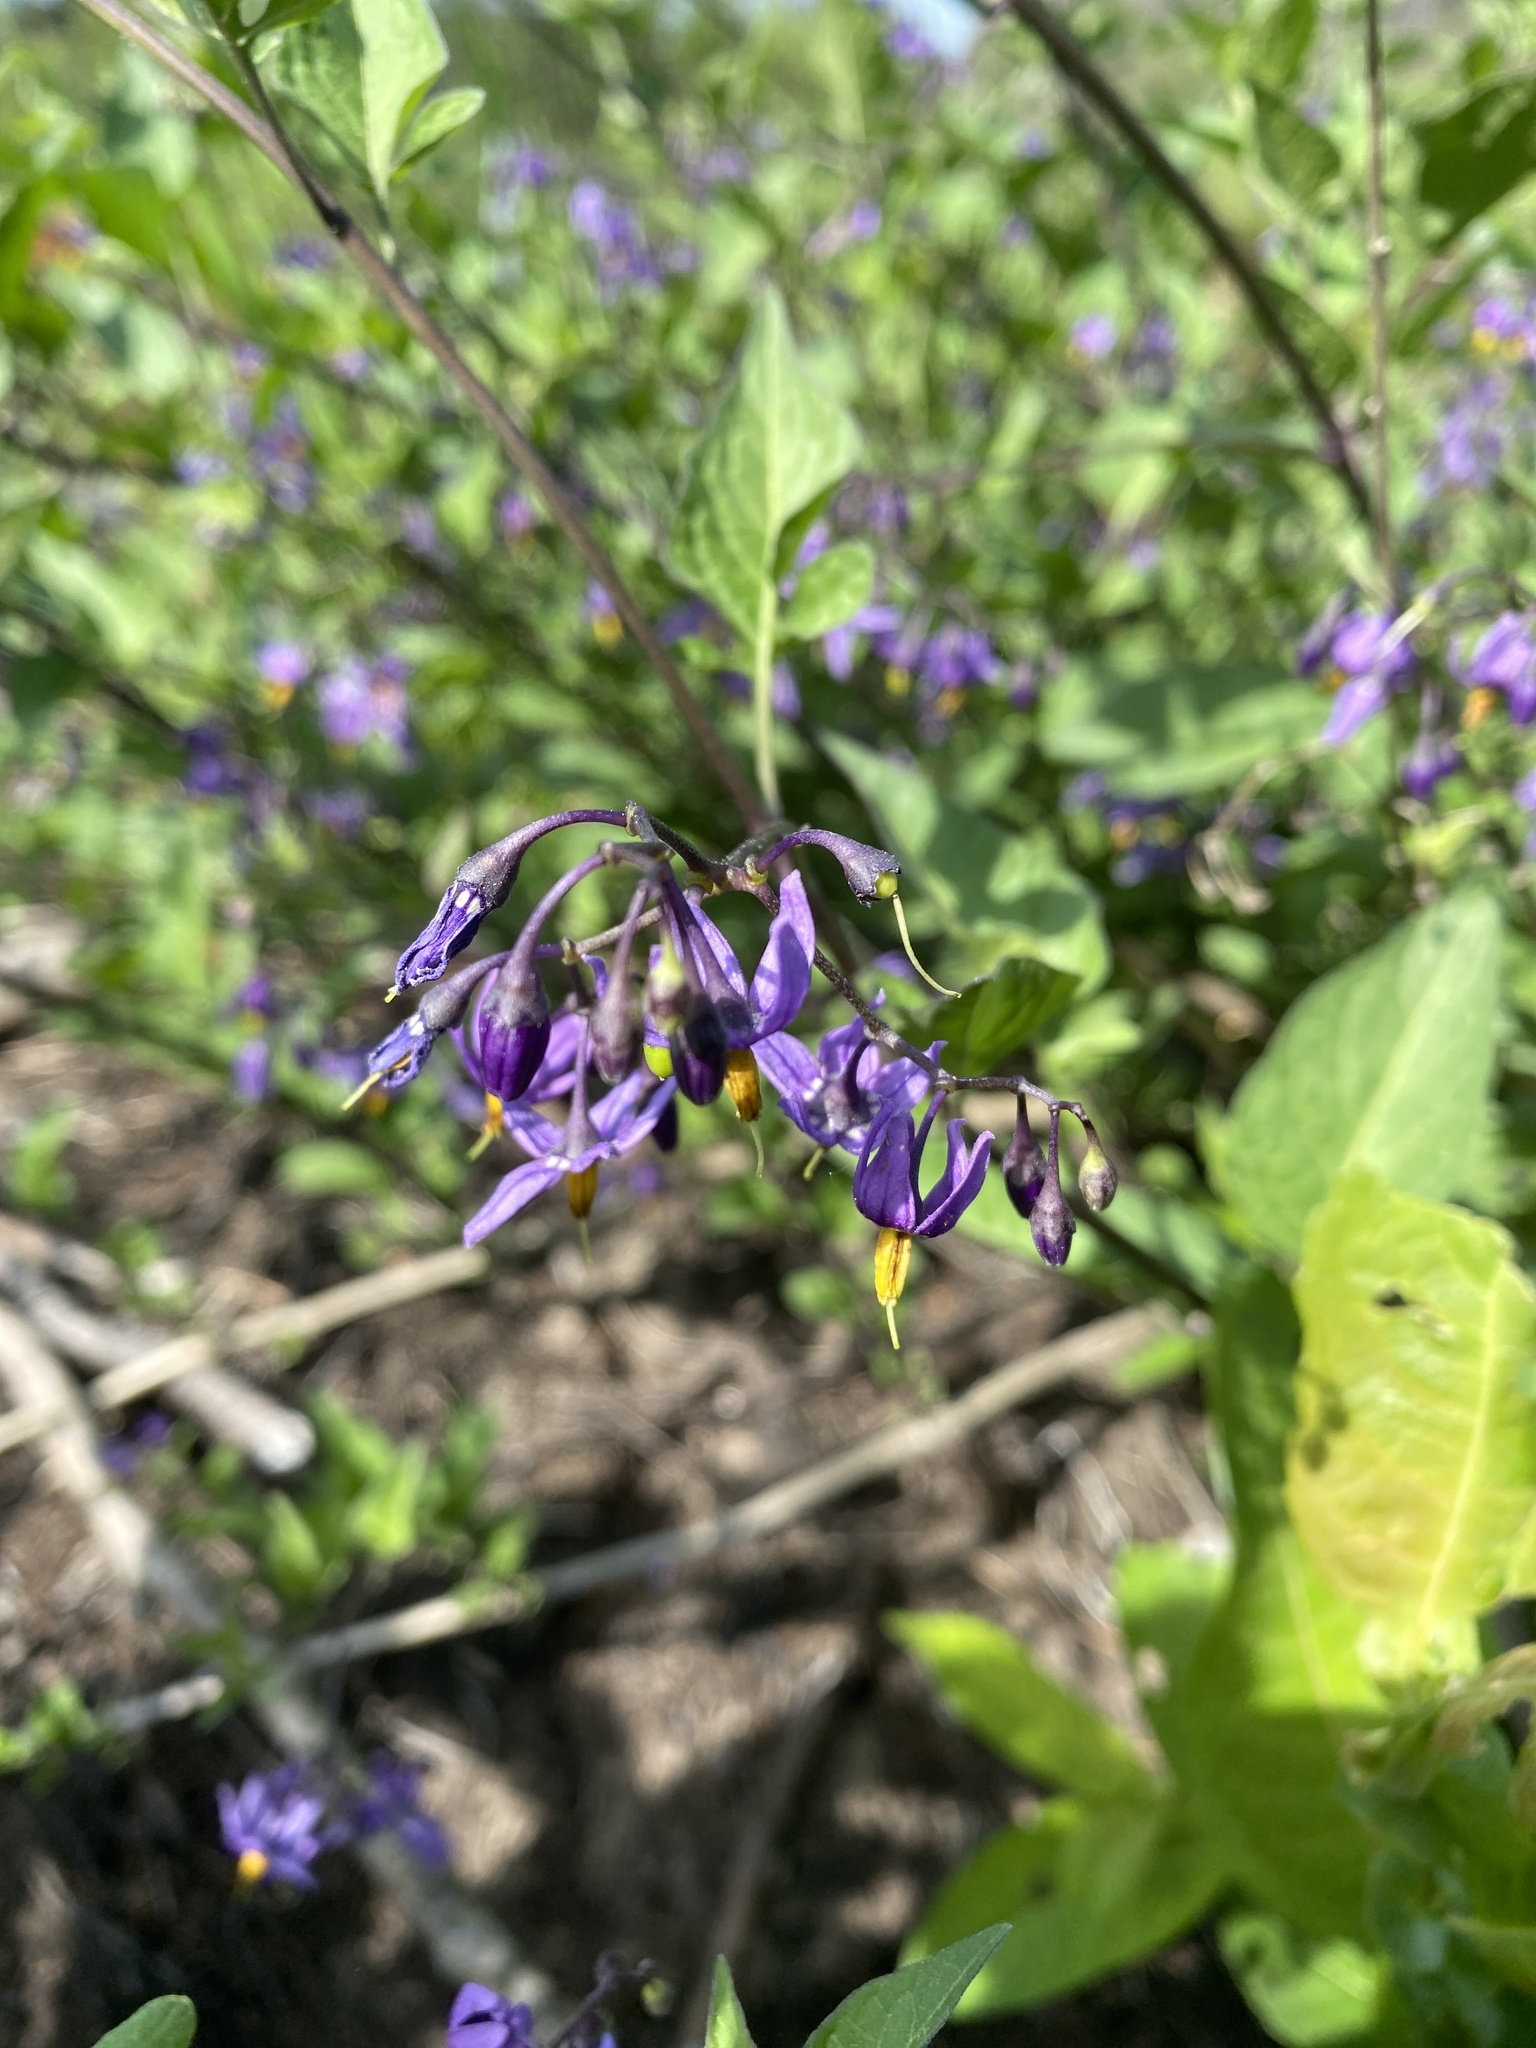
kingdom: Plantae
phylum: Tracheophyta
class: Magnoliopsida
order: Solanales
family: Solanaceae
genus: Solanum
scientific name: Solanum dulcamara
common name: Climbing nightshade
